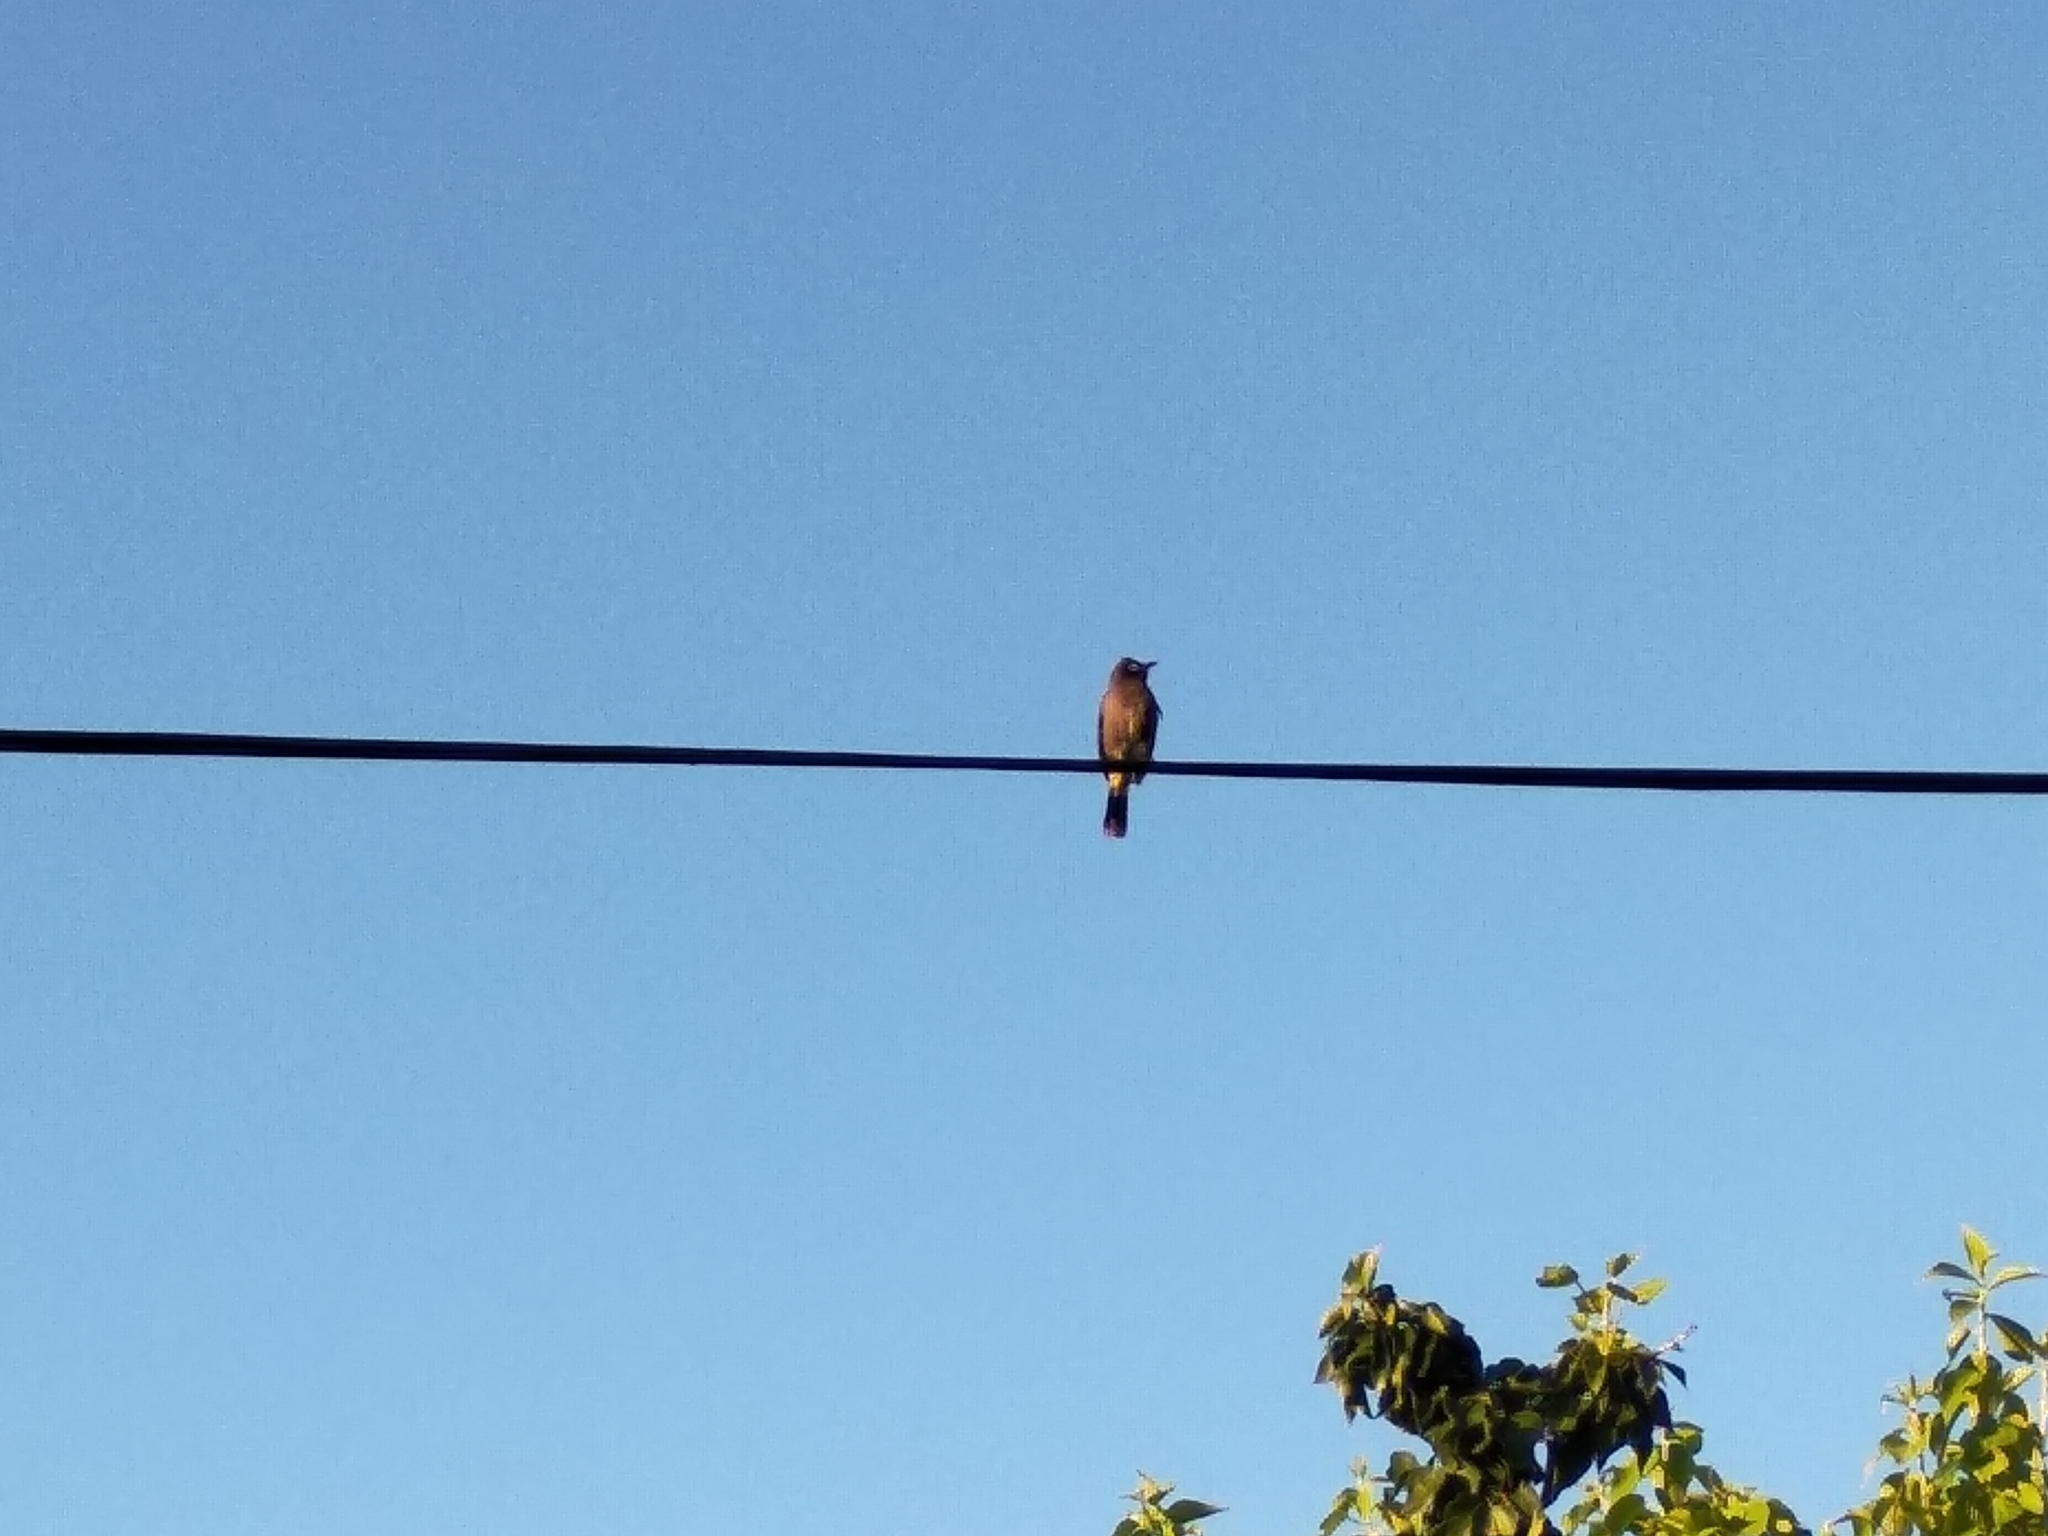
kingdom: Animalia
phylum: Chordata
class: Aves
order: Passeriformes
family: Pycnonotidae
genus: Pycnonotus
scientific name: Pycnonotus capensis
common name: Cape bulbul
